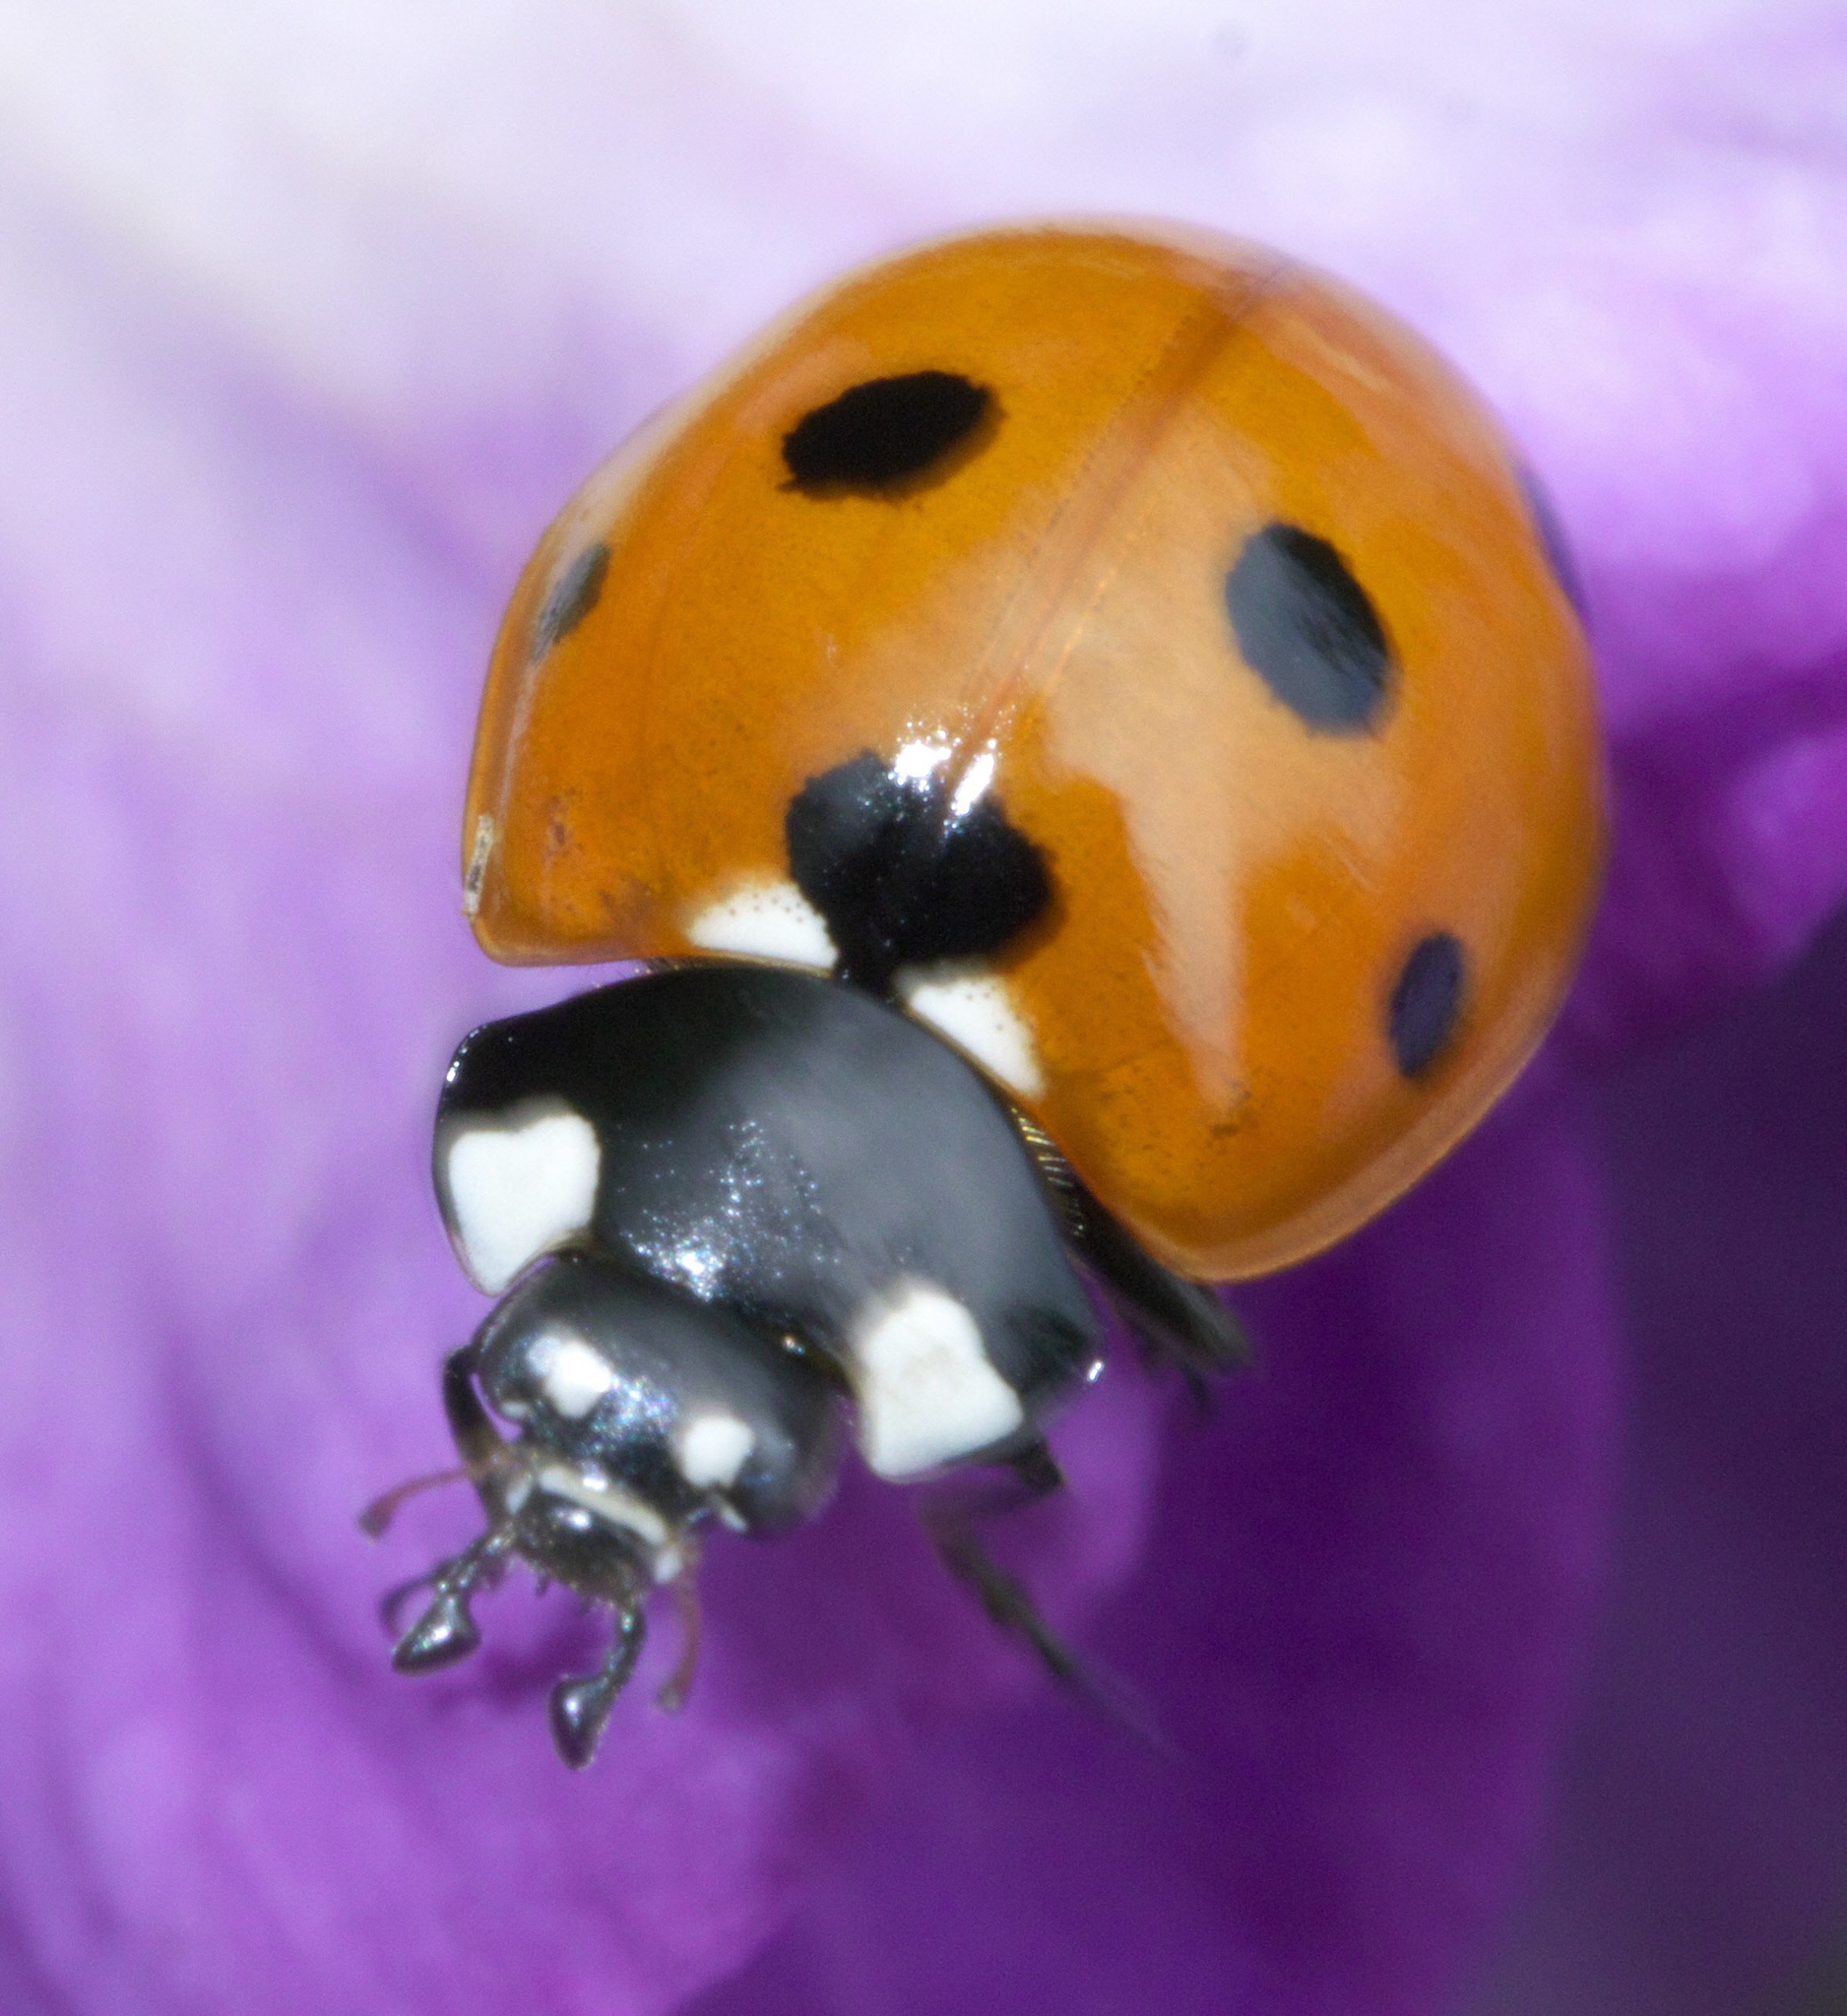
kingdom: Animalia
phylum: Arthropoda
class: Insecta
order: Coleoptera
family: Coccinellidae
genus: Coccinella
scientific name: Coccinella septempunctata
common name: Sevenspotted lady beetle
